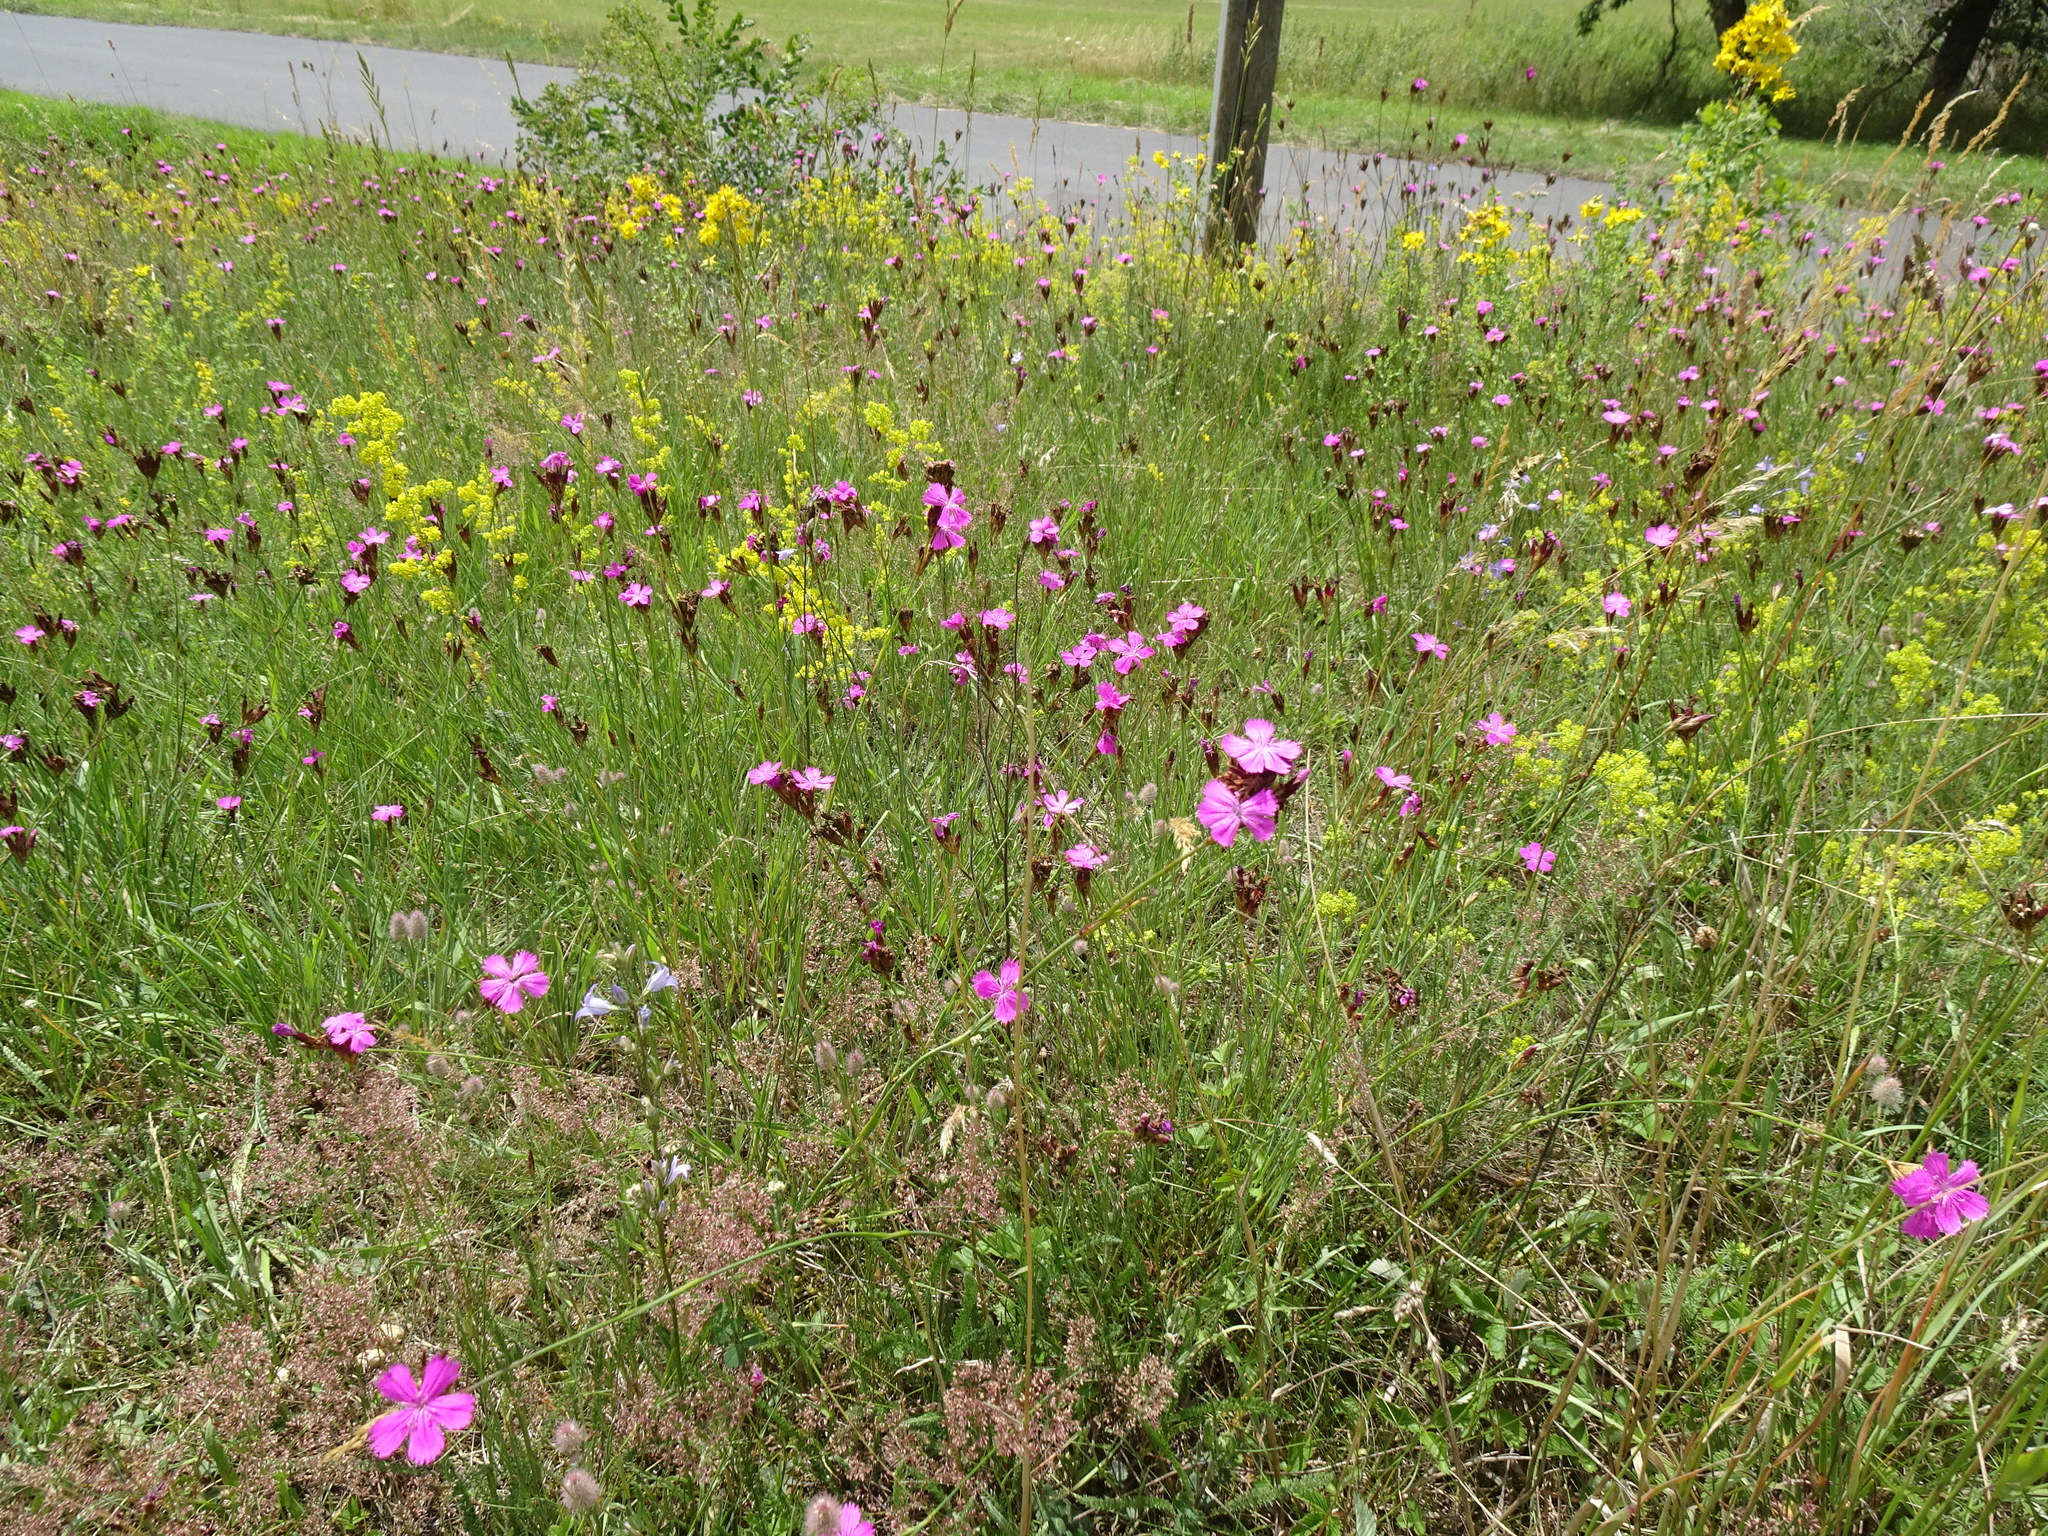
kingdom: Plantae
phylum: Tracheophyta
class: Magnoliopsida
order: Caryophyllales
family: Caryophyllaceae
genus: Dianthus
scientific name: Dianthus carthusianorum
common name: Carthusian pink
